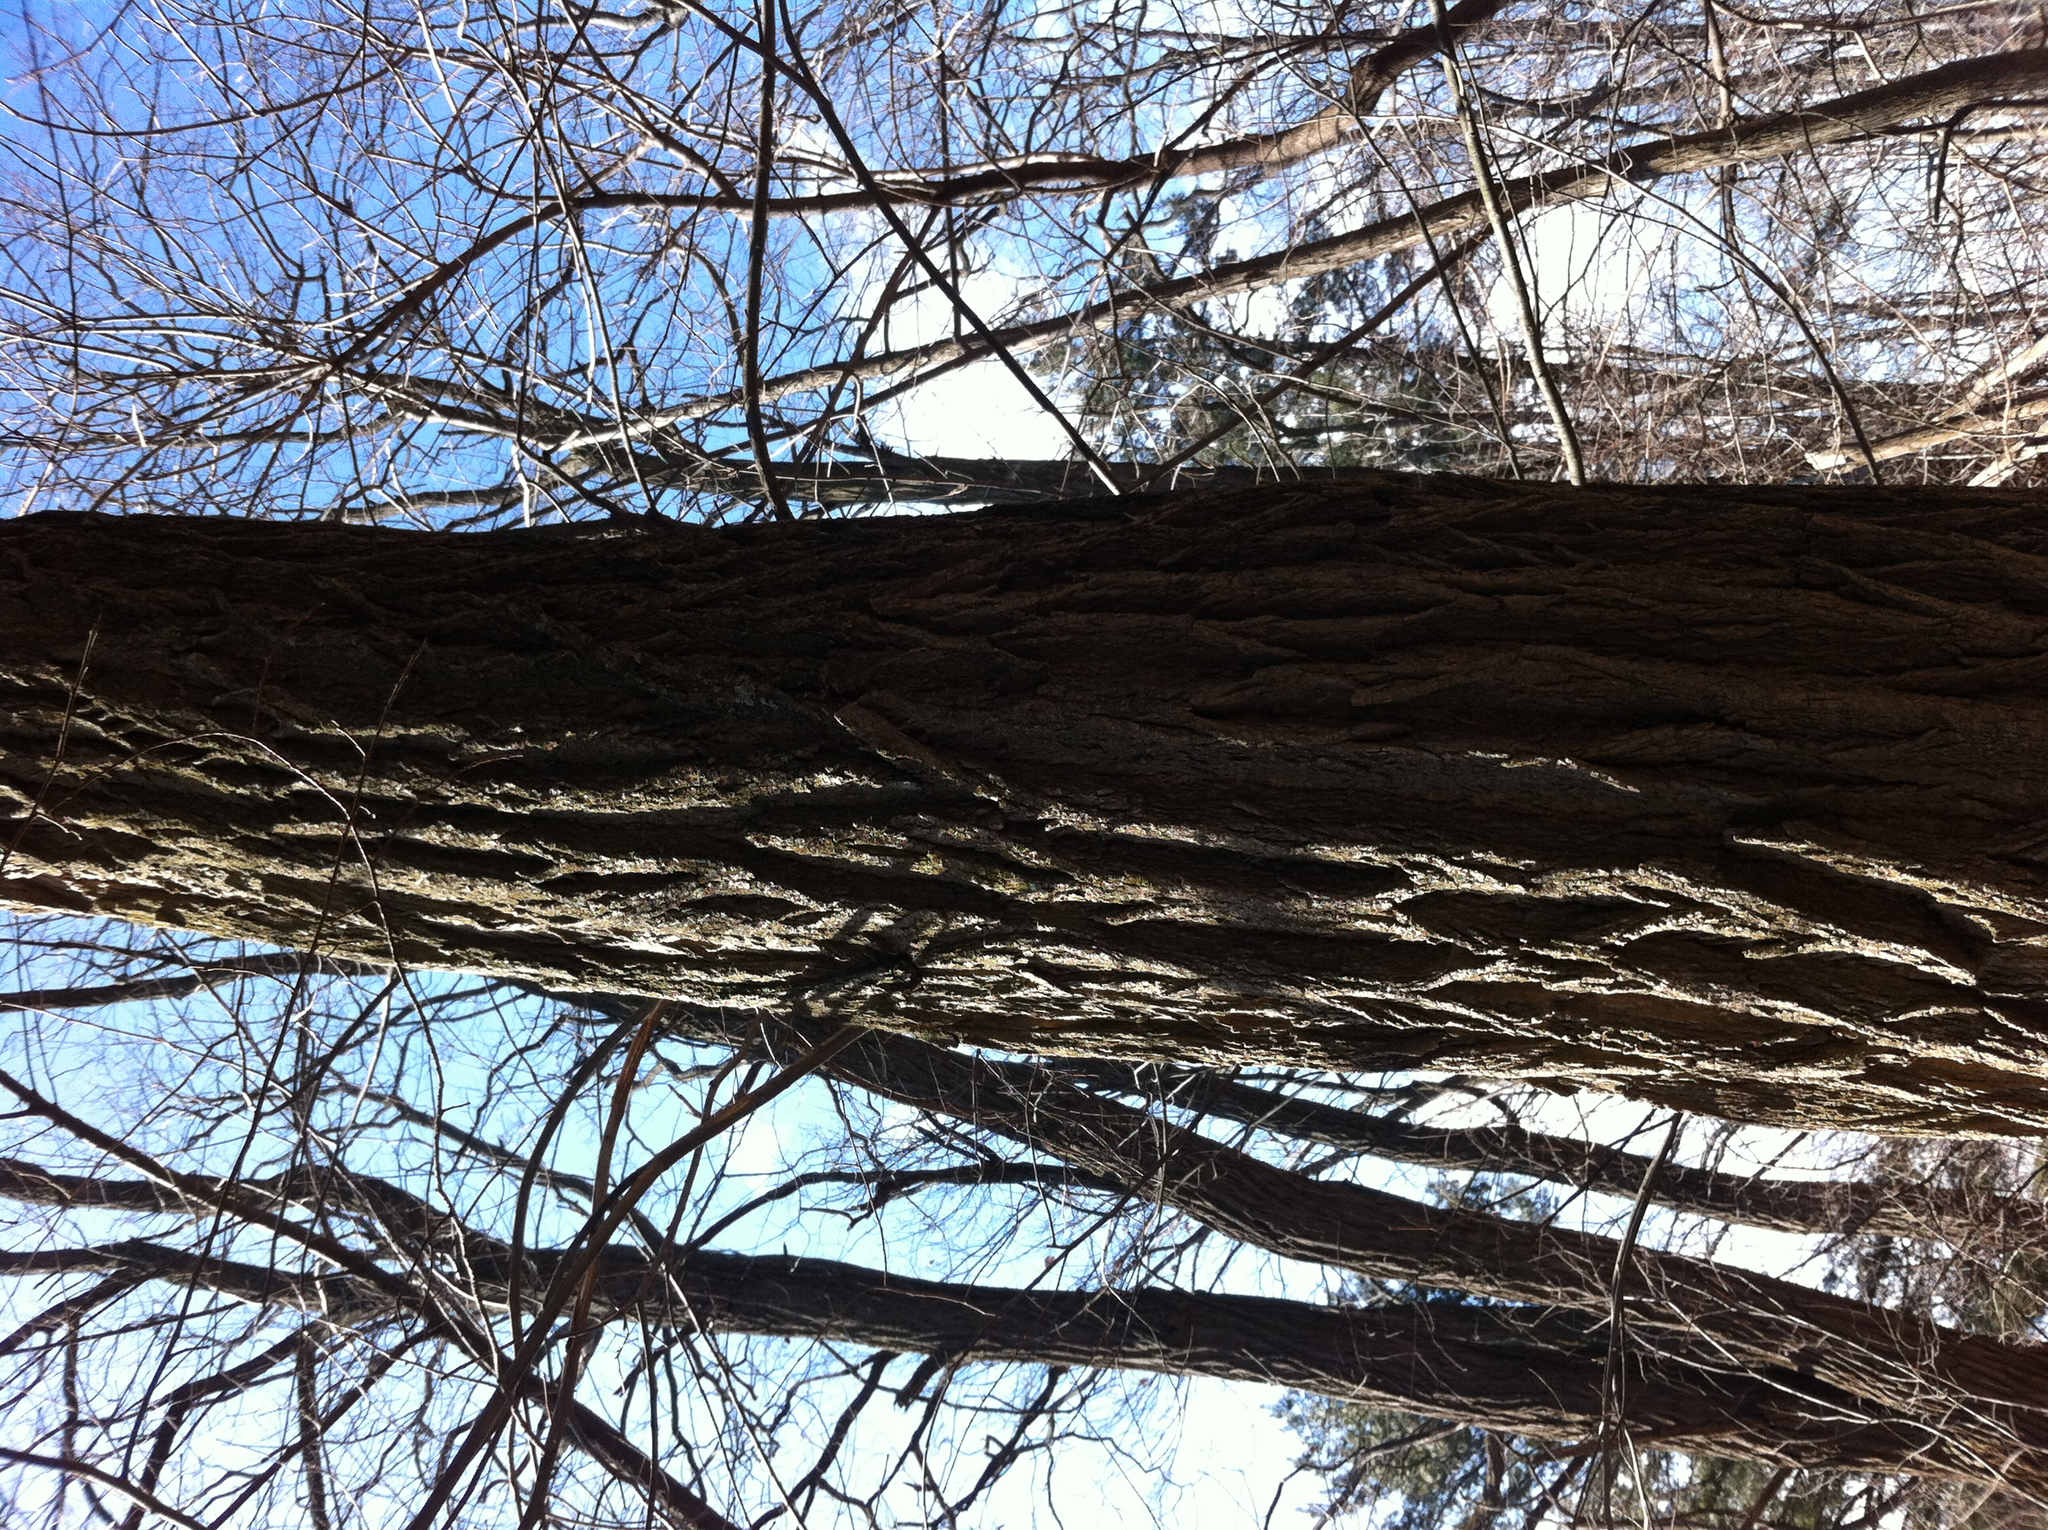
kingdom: Plantae
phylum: Tracheophyta
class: Magnoliopsida
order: Fabales
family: Fabaceae
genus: Robinia
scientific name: Robinia pseudoacacia
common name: Black locust
